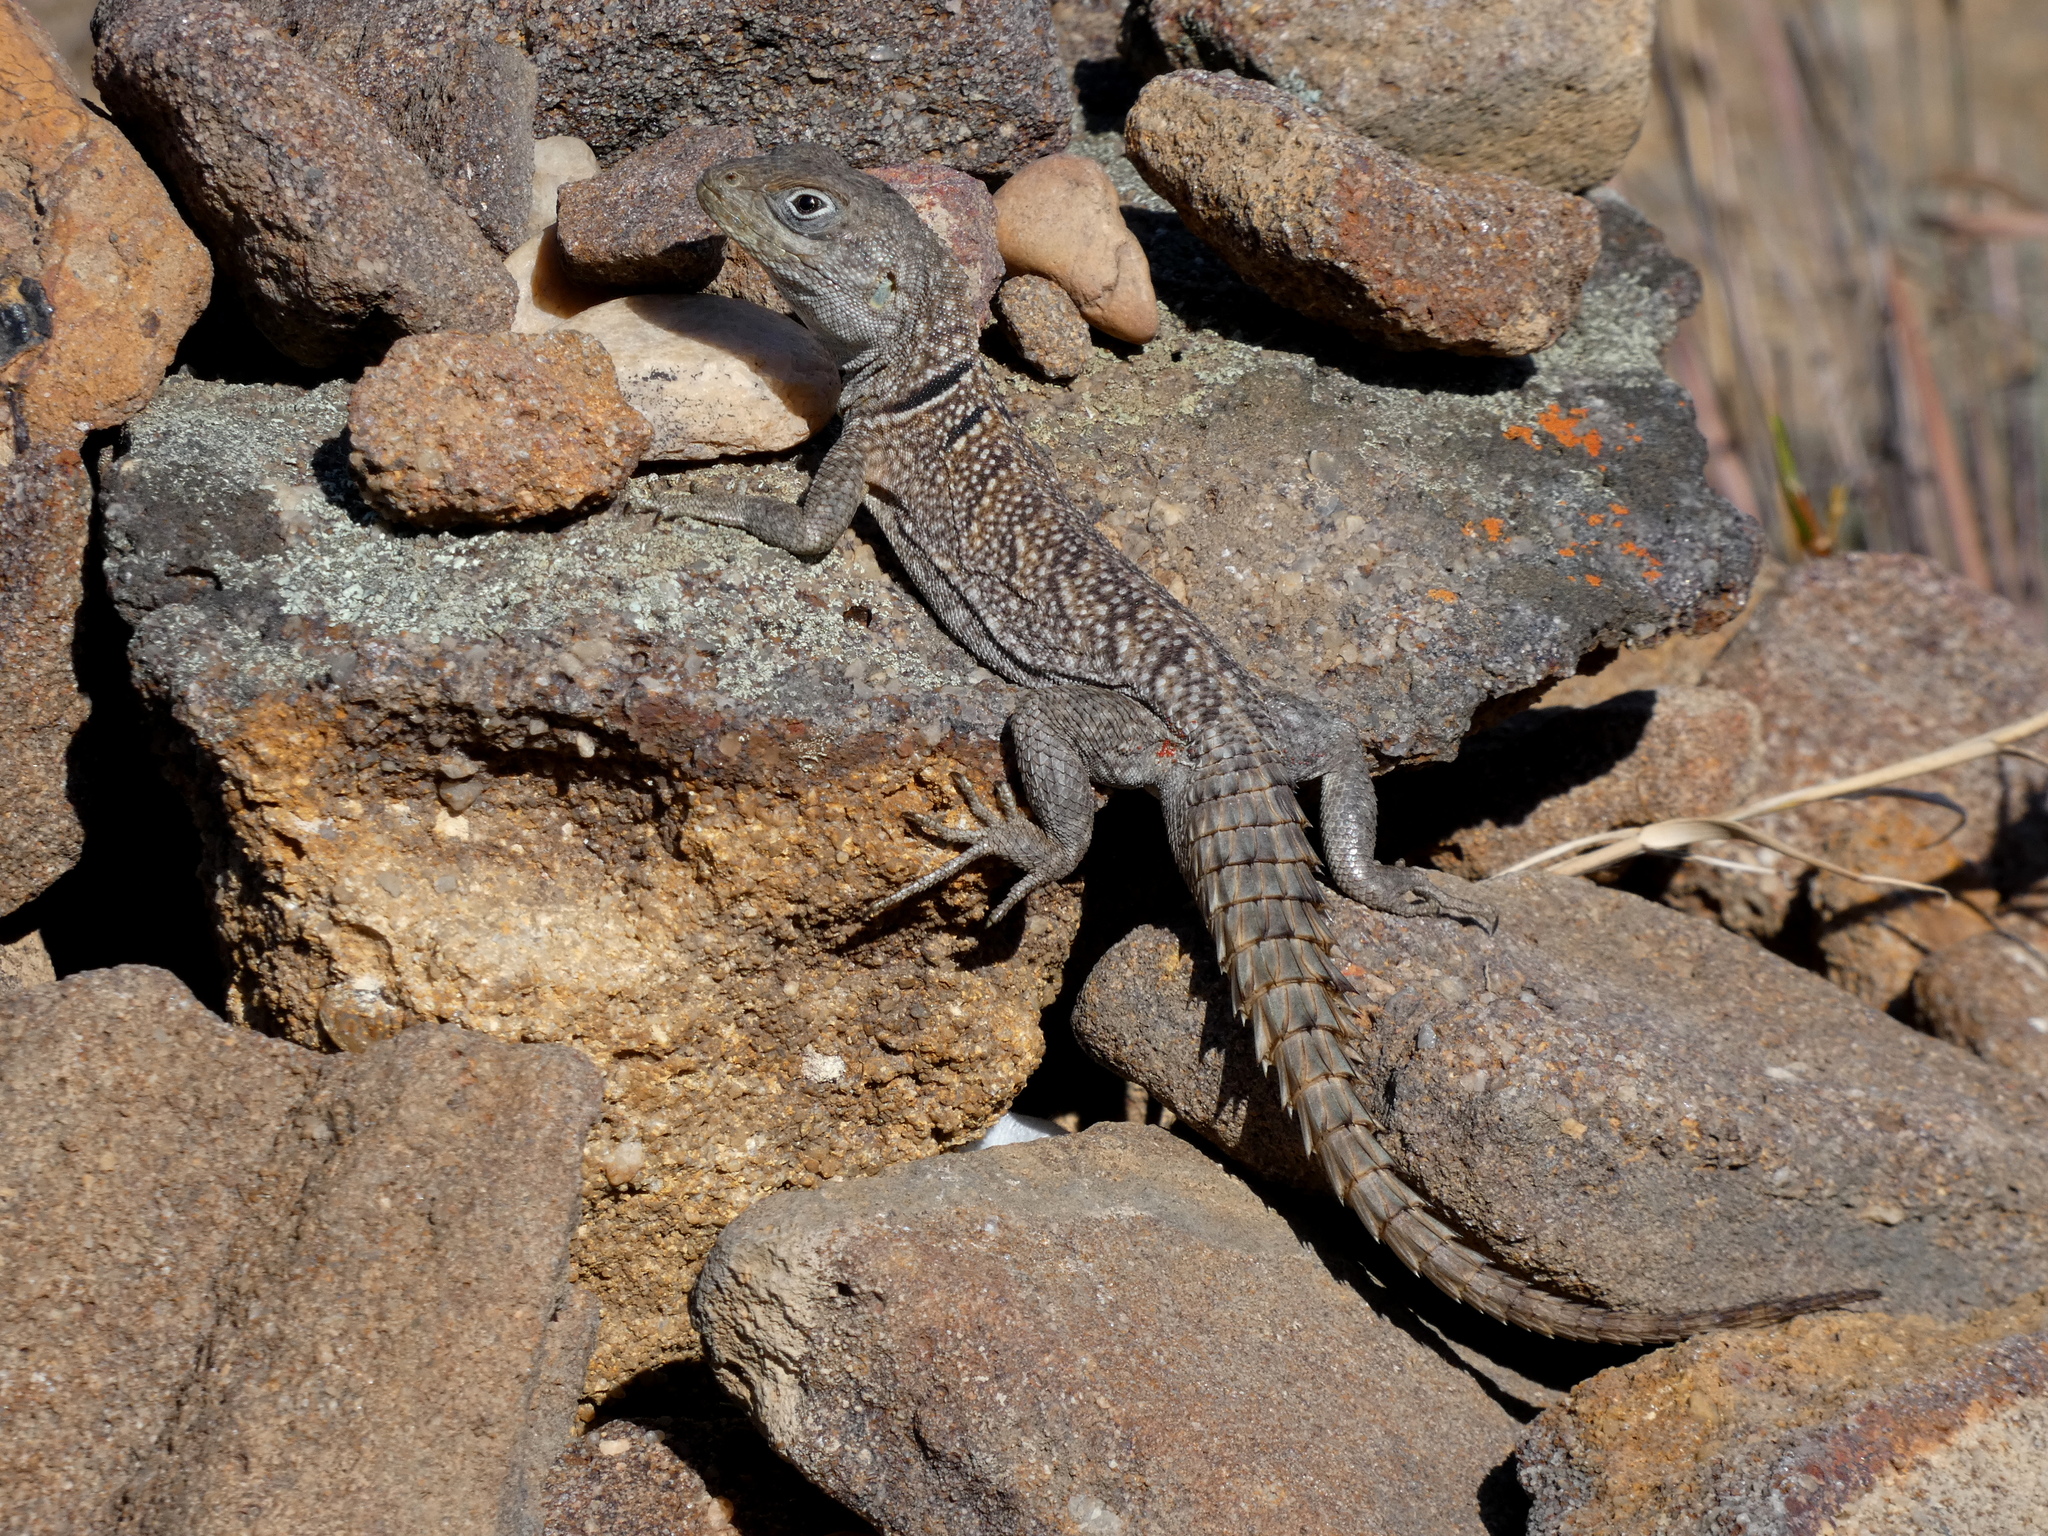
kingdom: Animalia
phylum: Chordata
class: Squamata
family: Opluridae
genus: Oplurus
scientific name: Oplurus cyclurus
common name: Merrem's madagascar swift
